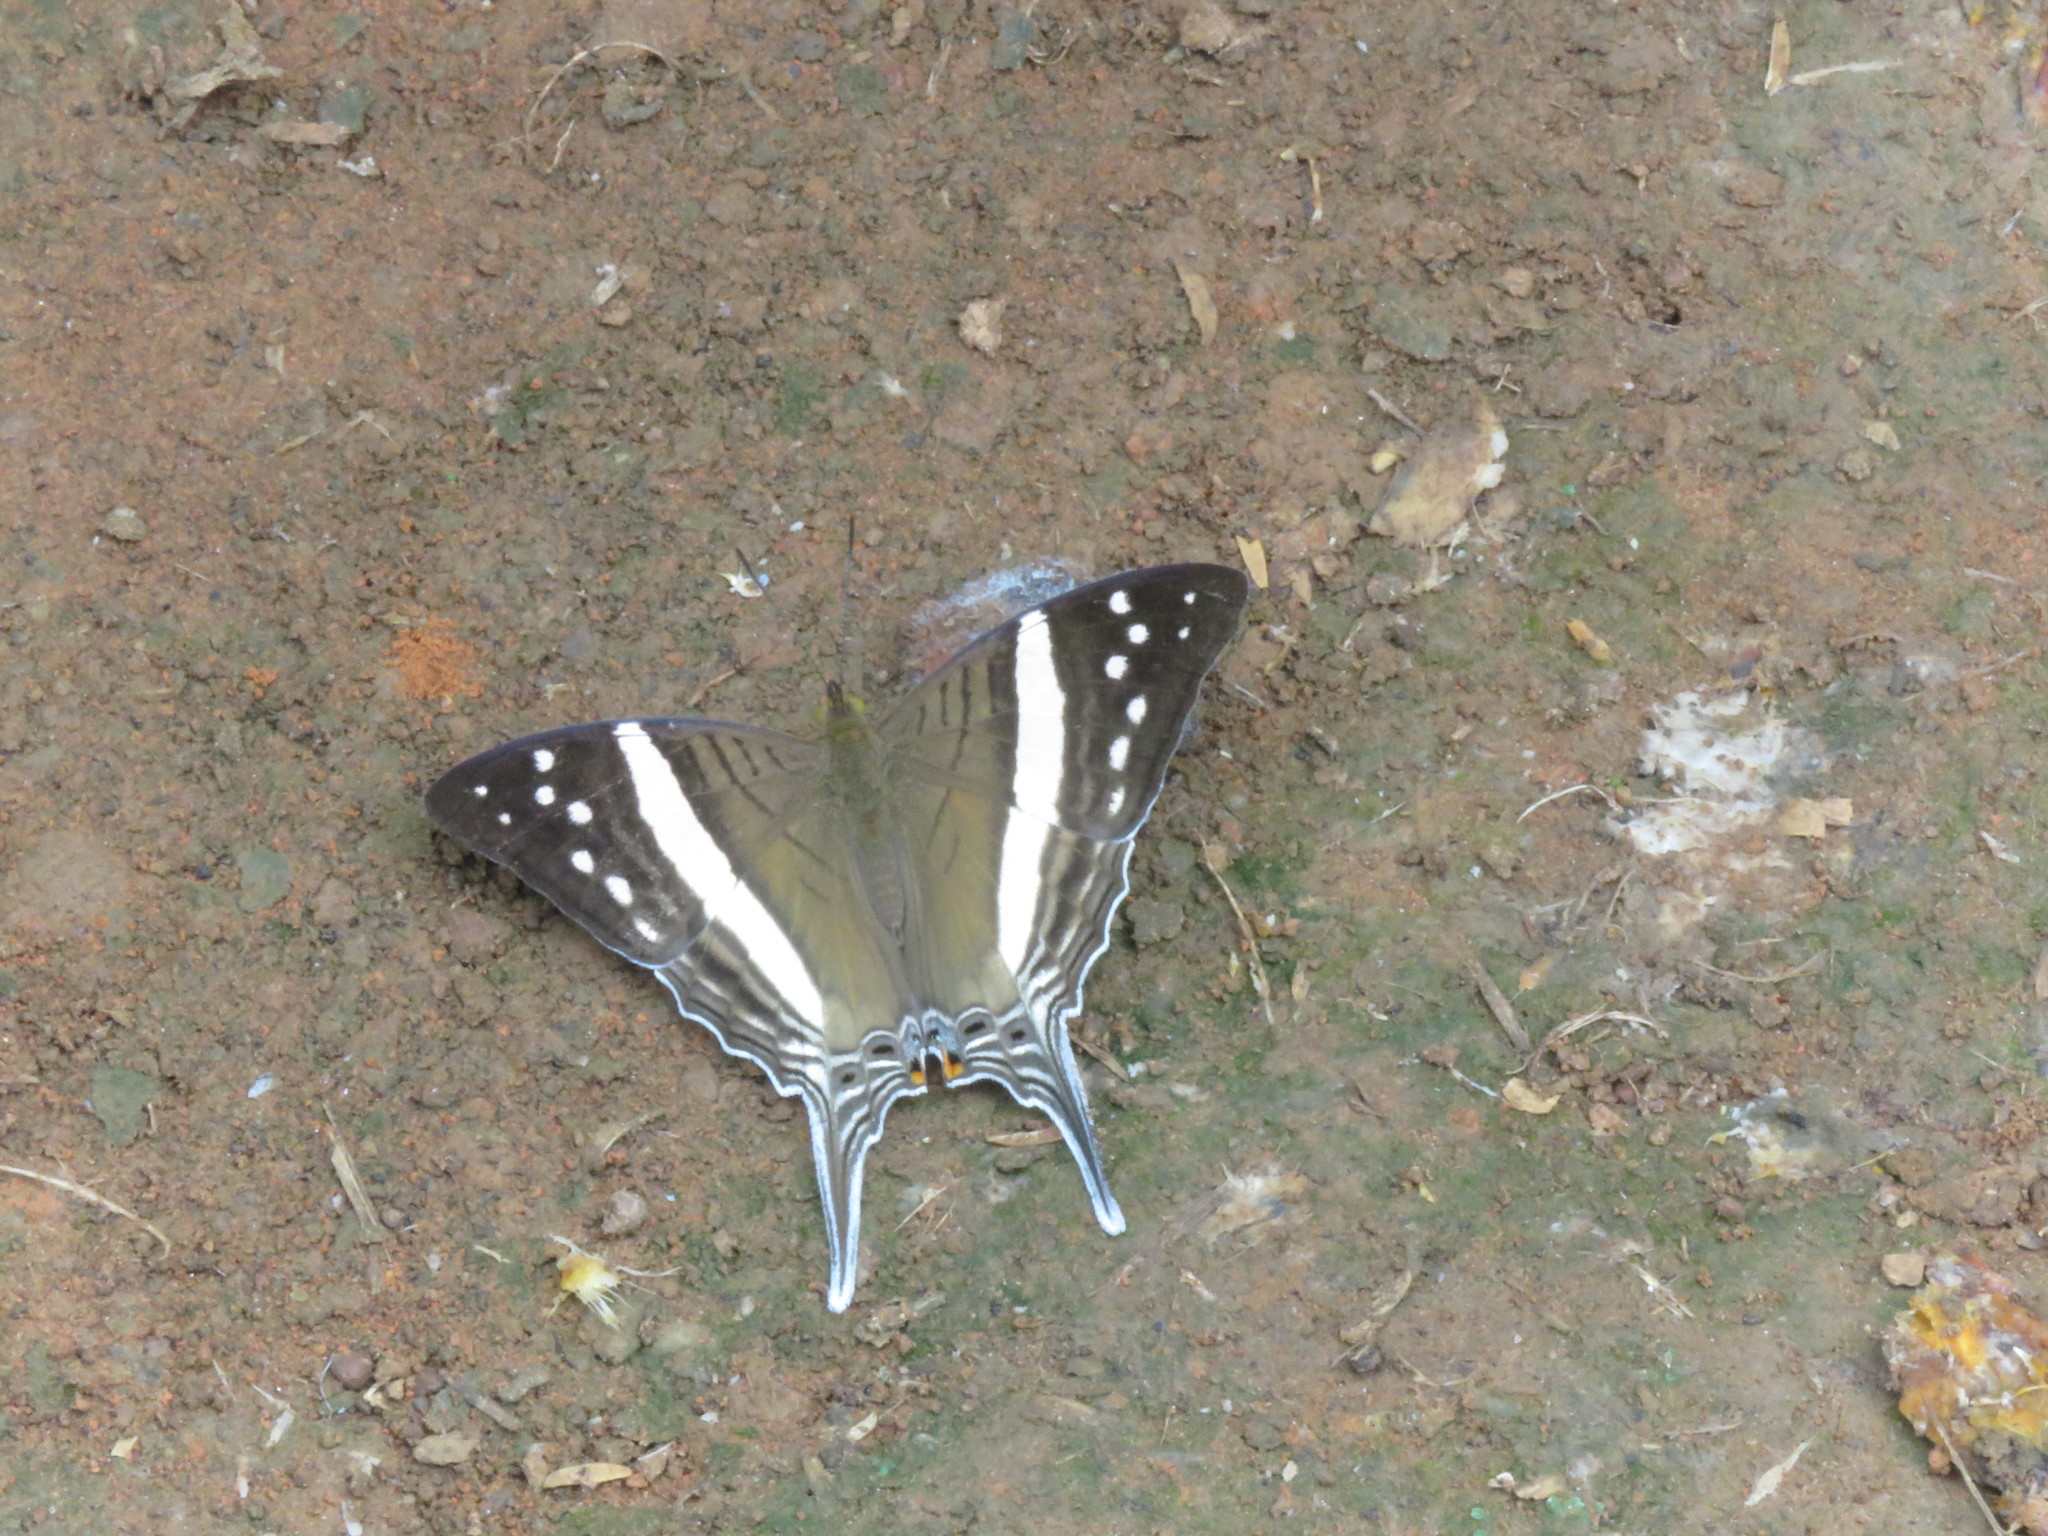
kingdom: Animalia
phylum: Arthropoda
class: Insecta
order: Lepidoptera
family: Nymphalidae
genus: Marpesia
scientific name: Marpesia crethon
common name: Crethon daggerwing
